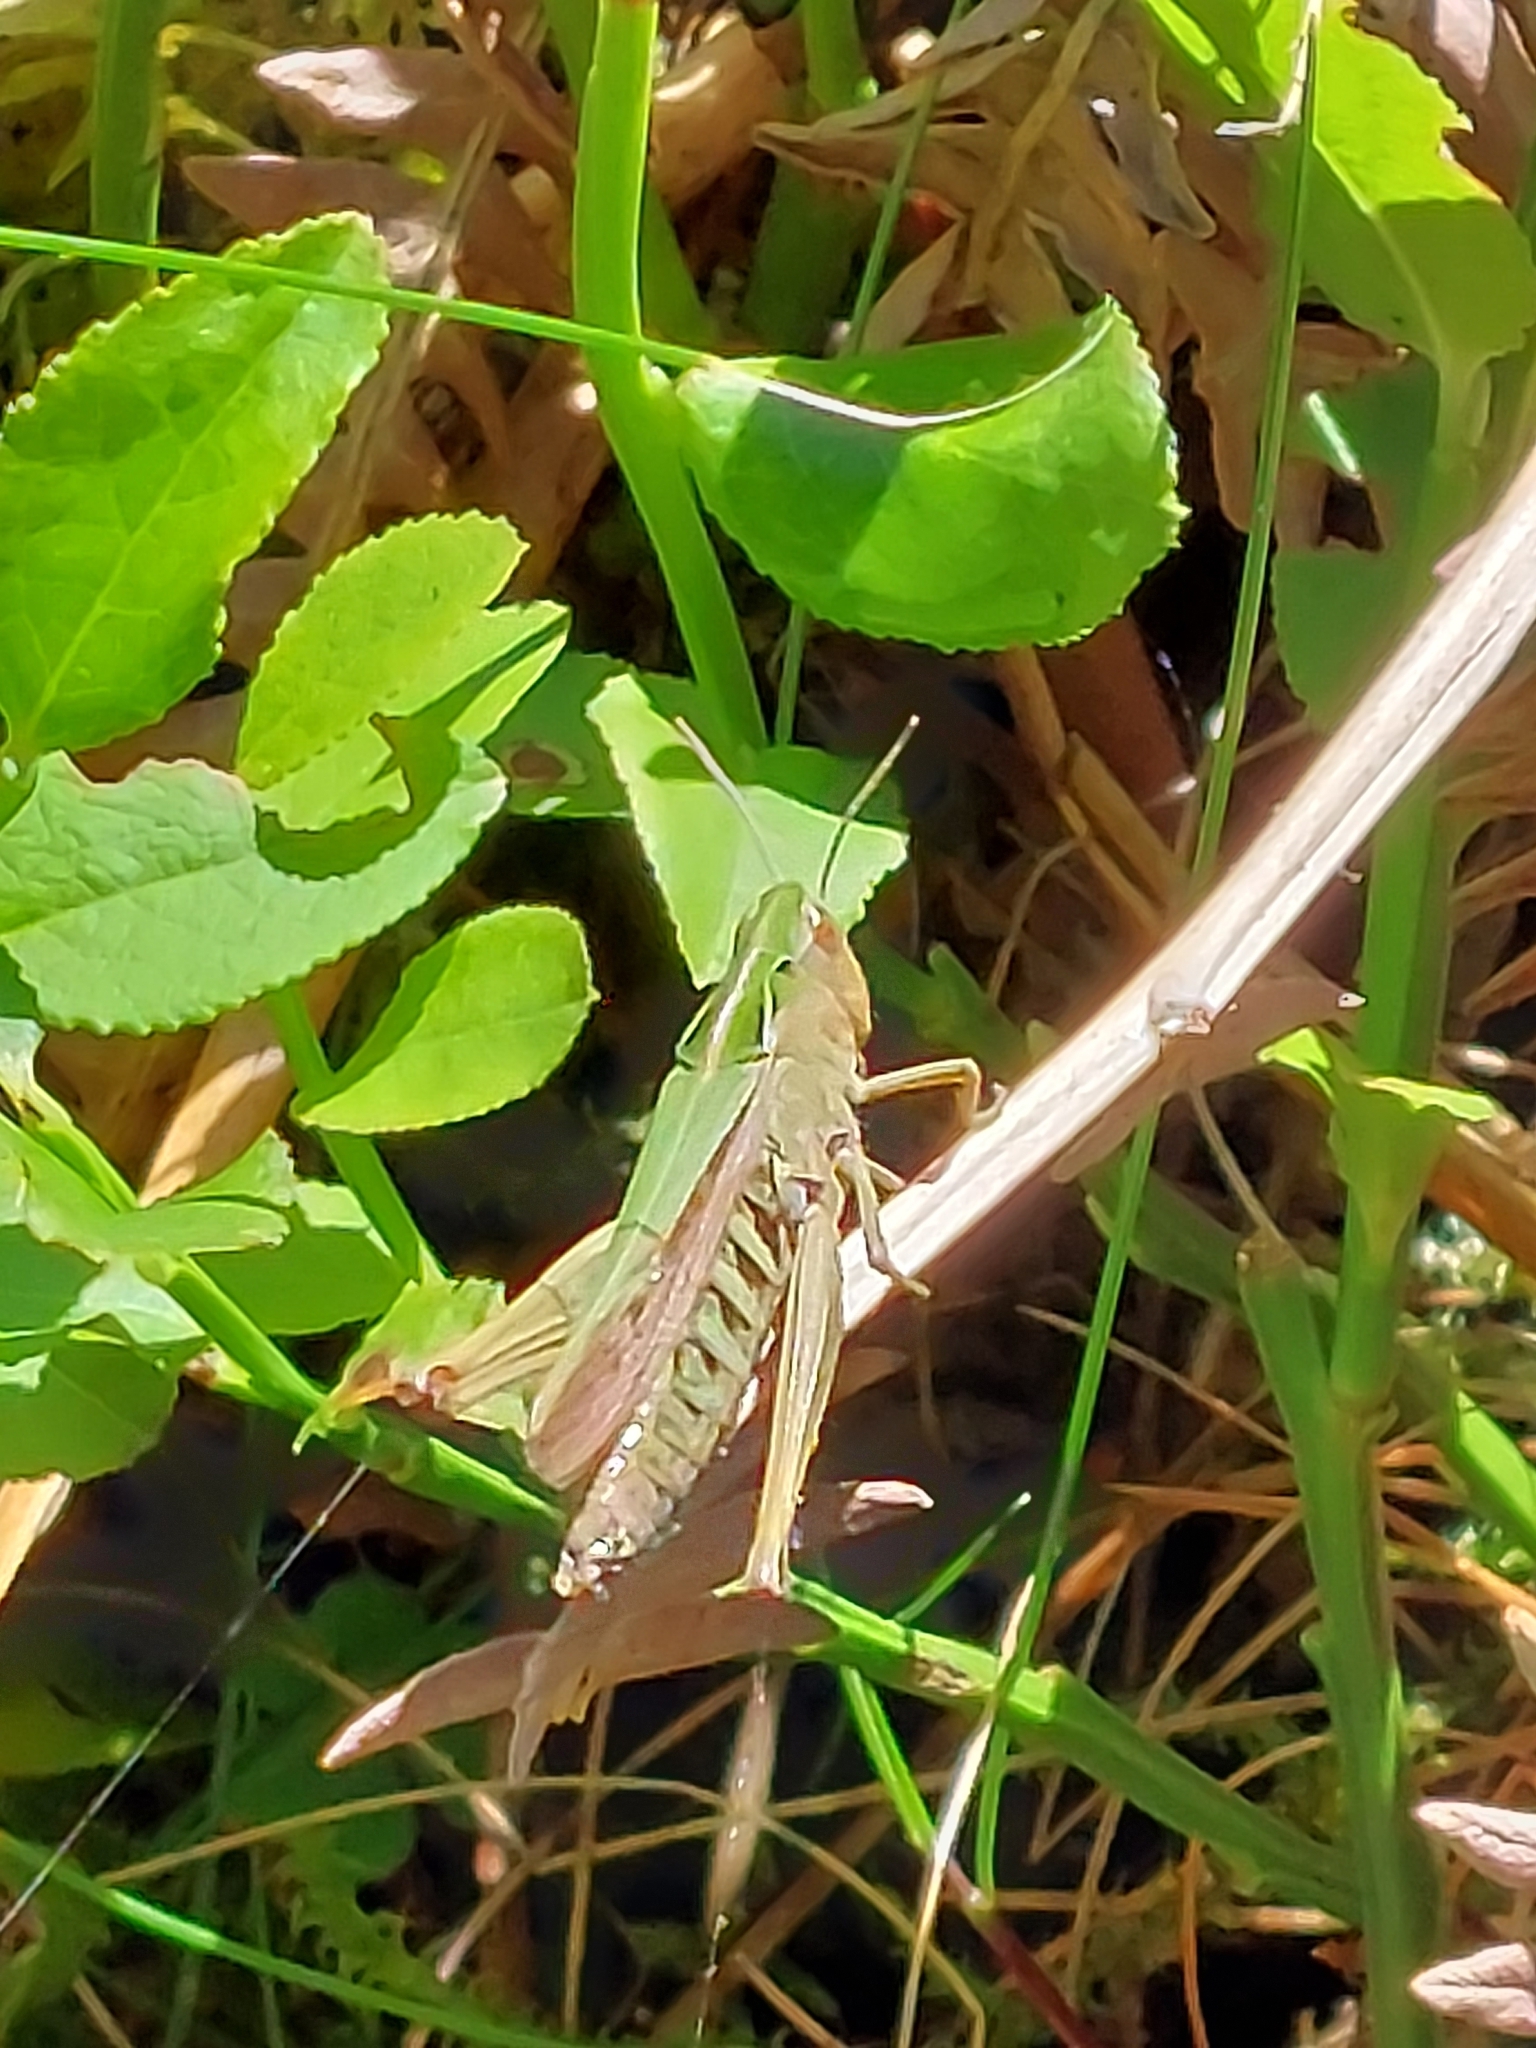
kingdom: Animalia
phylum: Arthropoda
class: Insecta
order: Orthoptera
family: Acrididae
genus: Omocestus
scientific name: Omocestus viridulus
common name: Common green grasshopper
